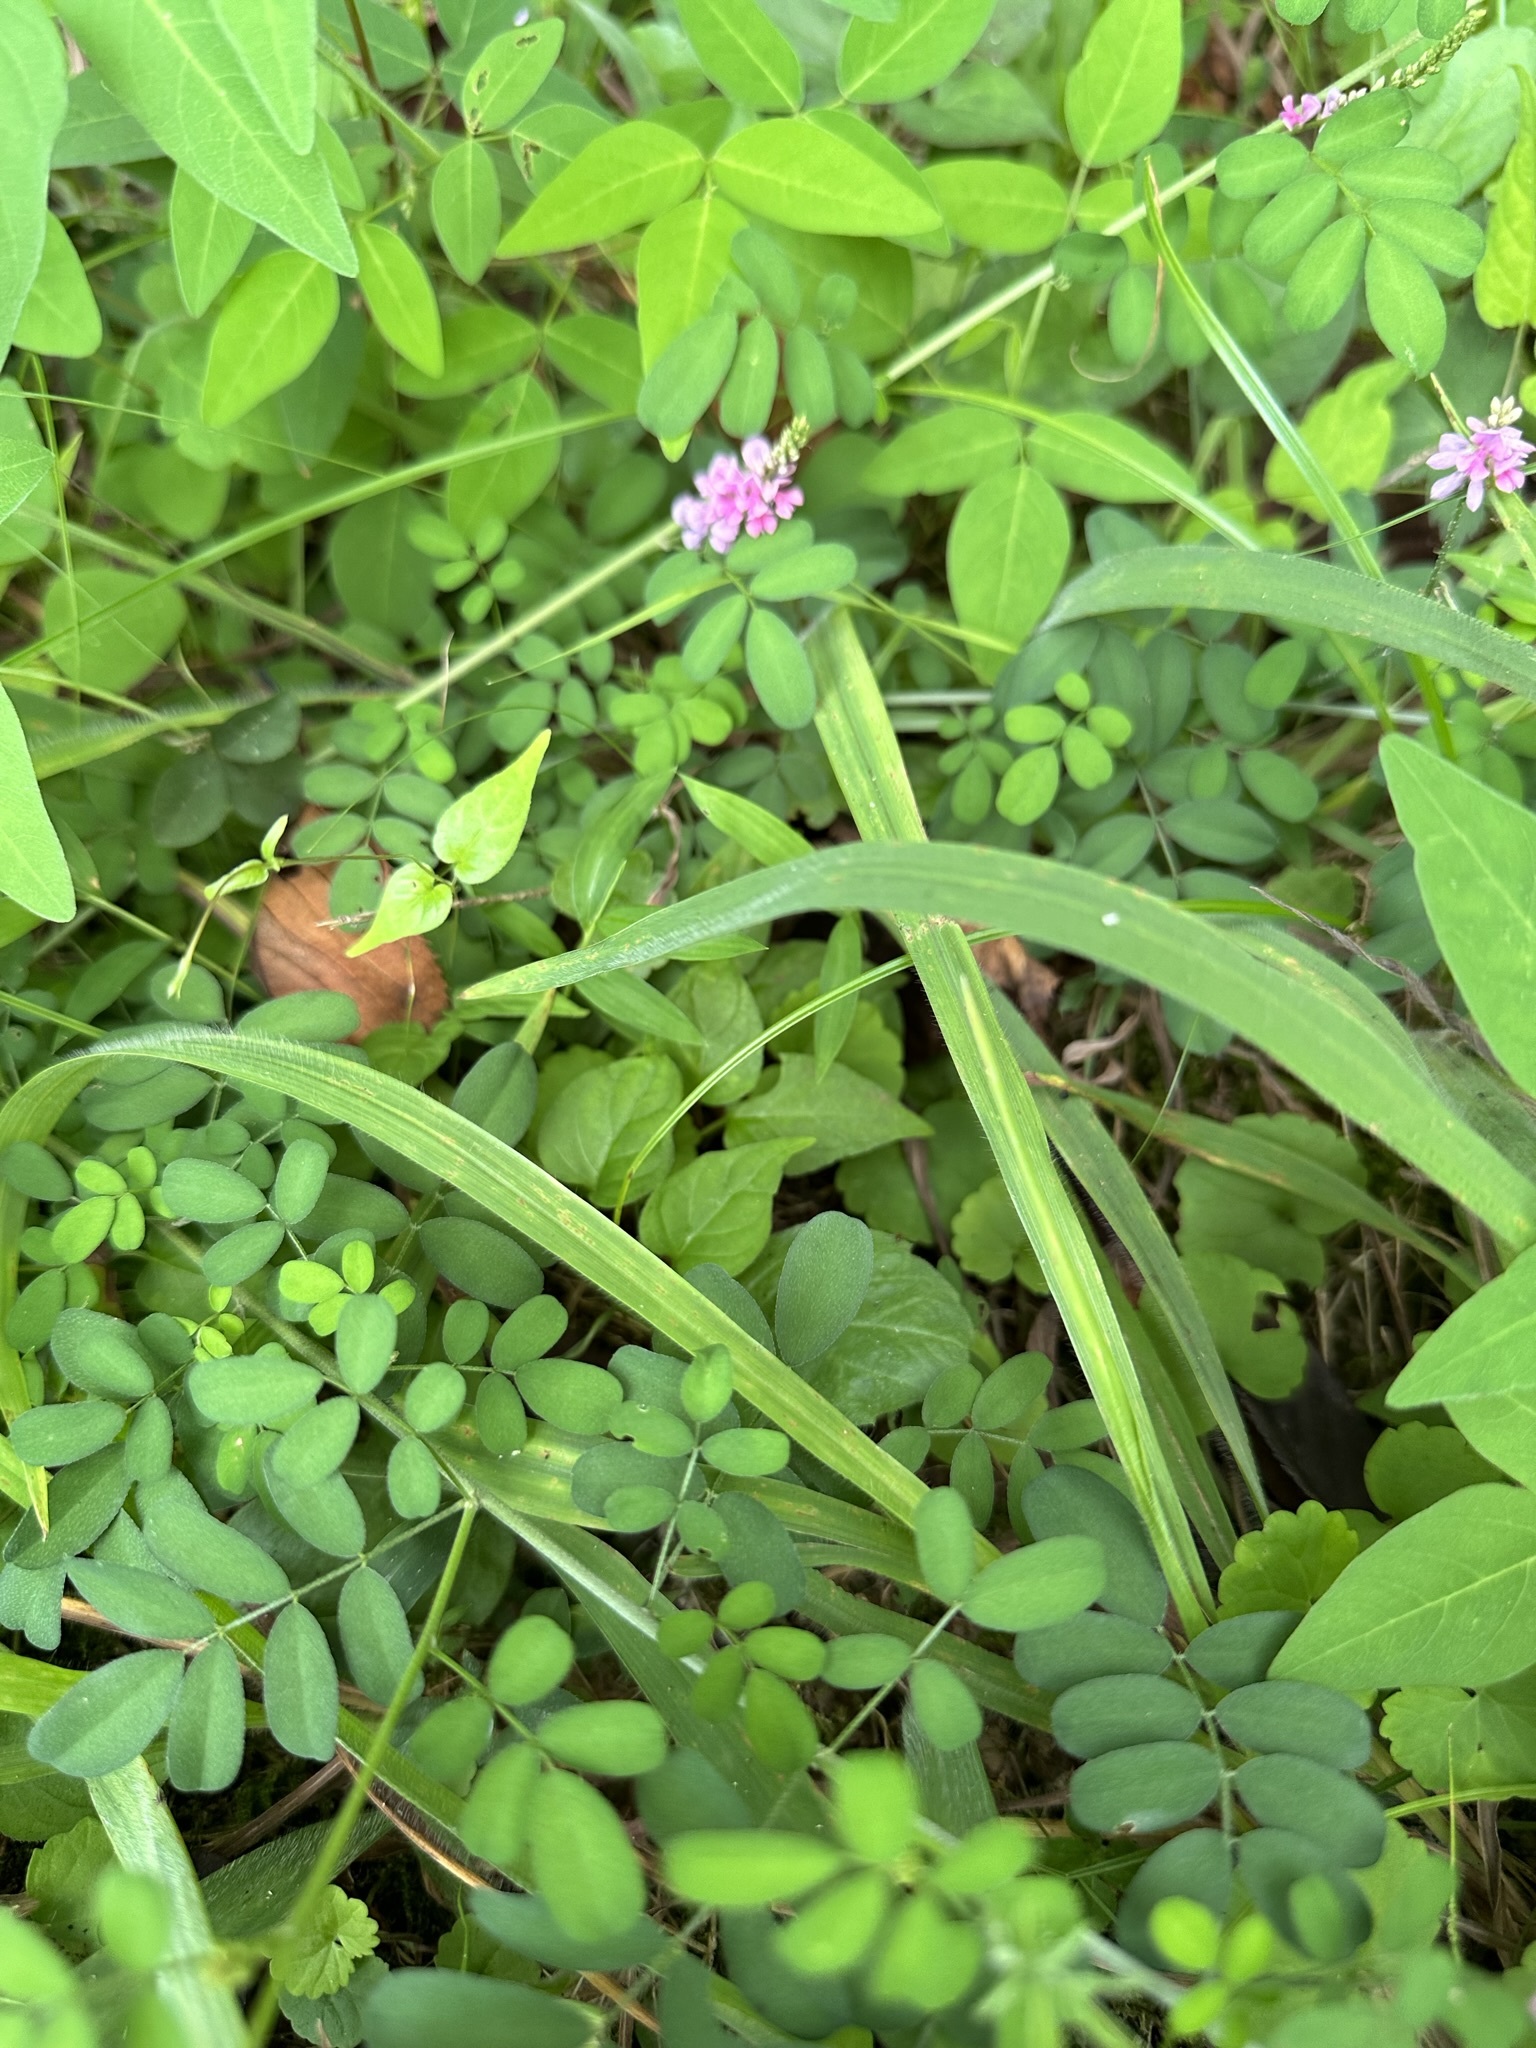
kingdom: Plantae
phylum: Tracheophyta
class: Magnoliopsida
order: Fabales
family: Fabaceae
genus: Indigofera
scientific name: Indigofera bungeana
